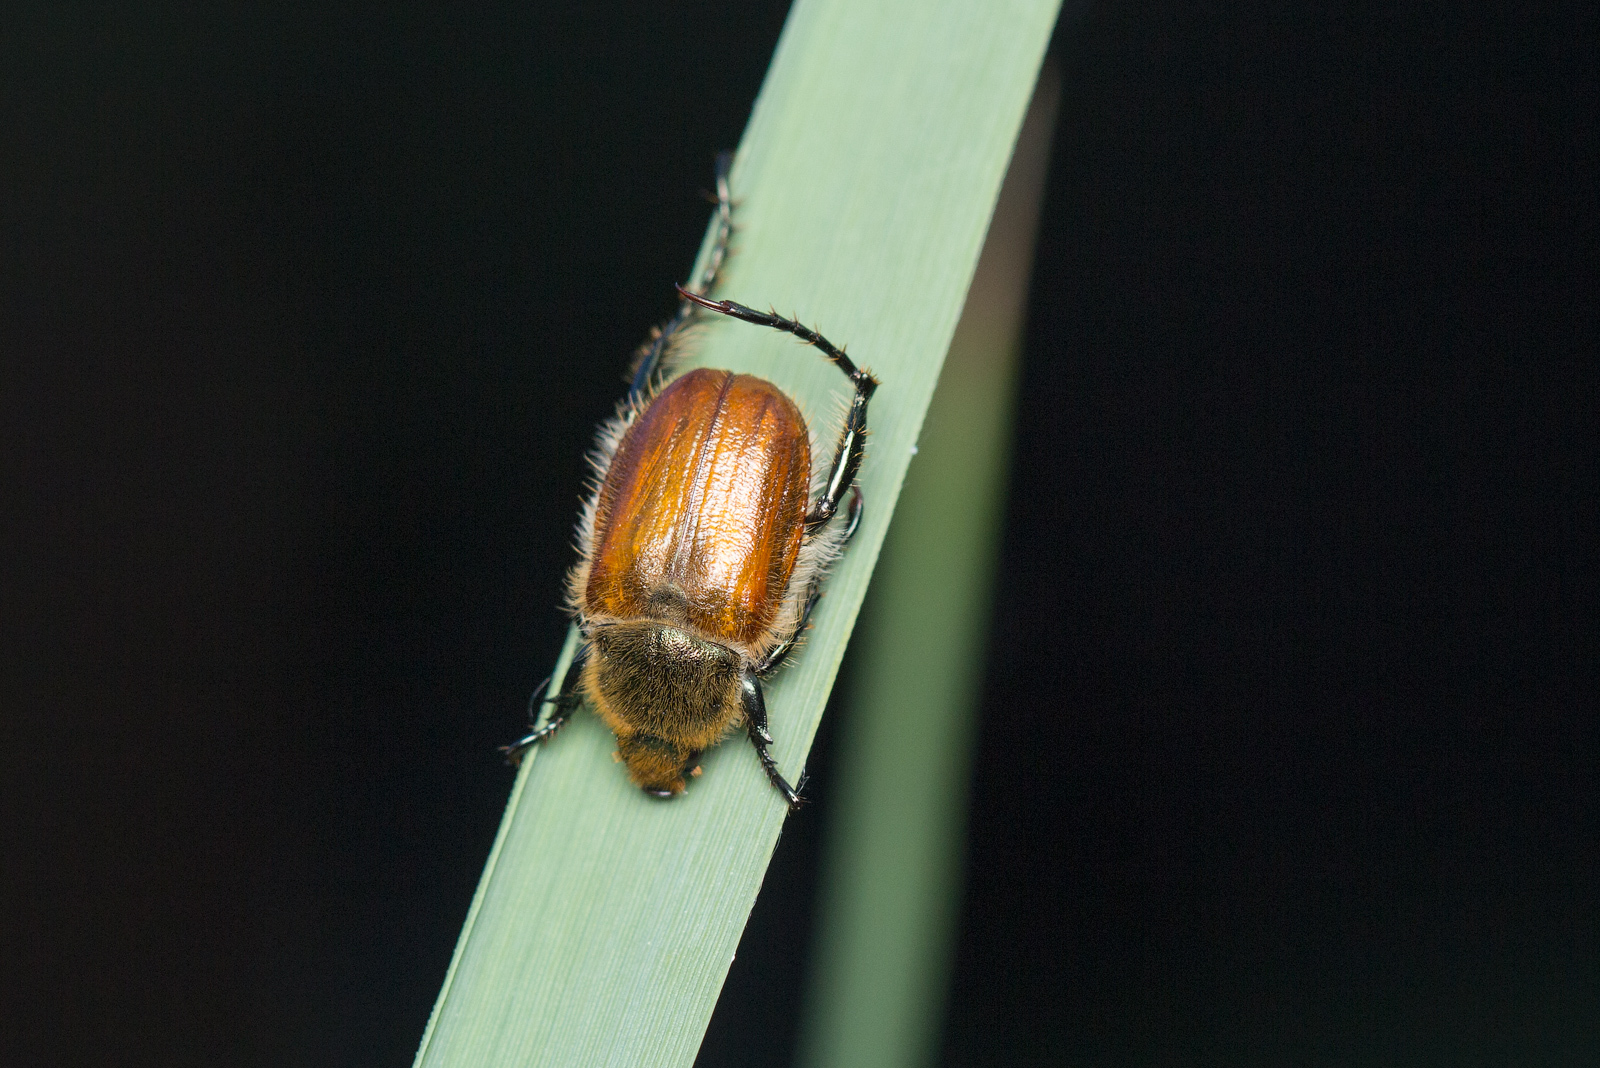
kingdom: Animalia
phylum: Arthropoda
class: Insecta
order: Coleoptera
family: Scarabaeidae
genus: Chaetopteroplia
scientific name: Chaetopteroplia segetum
